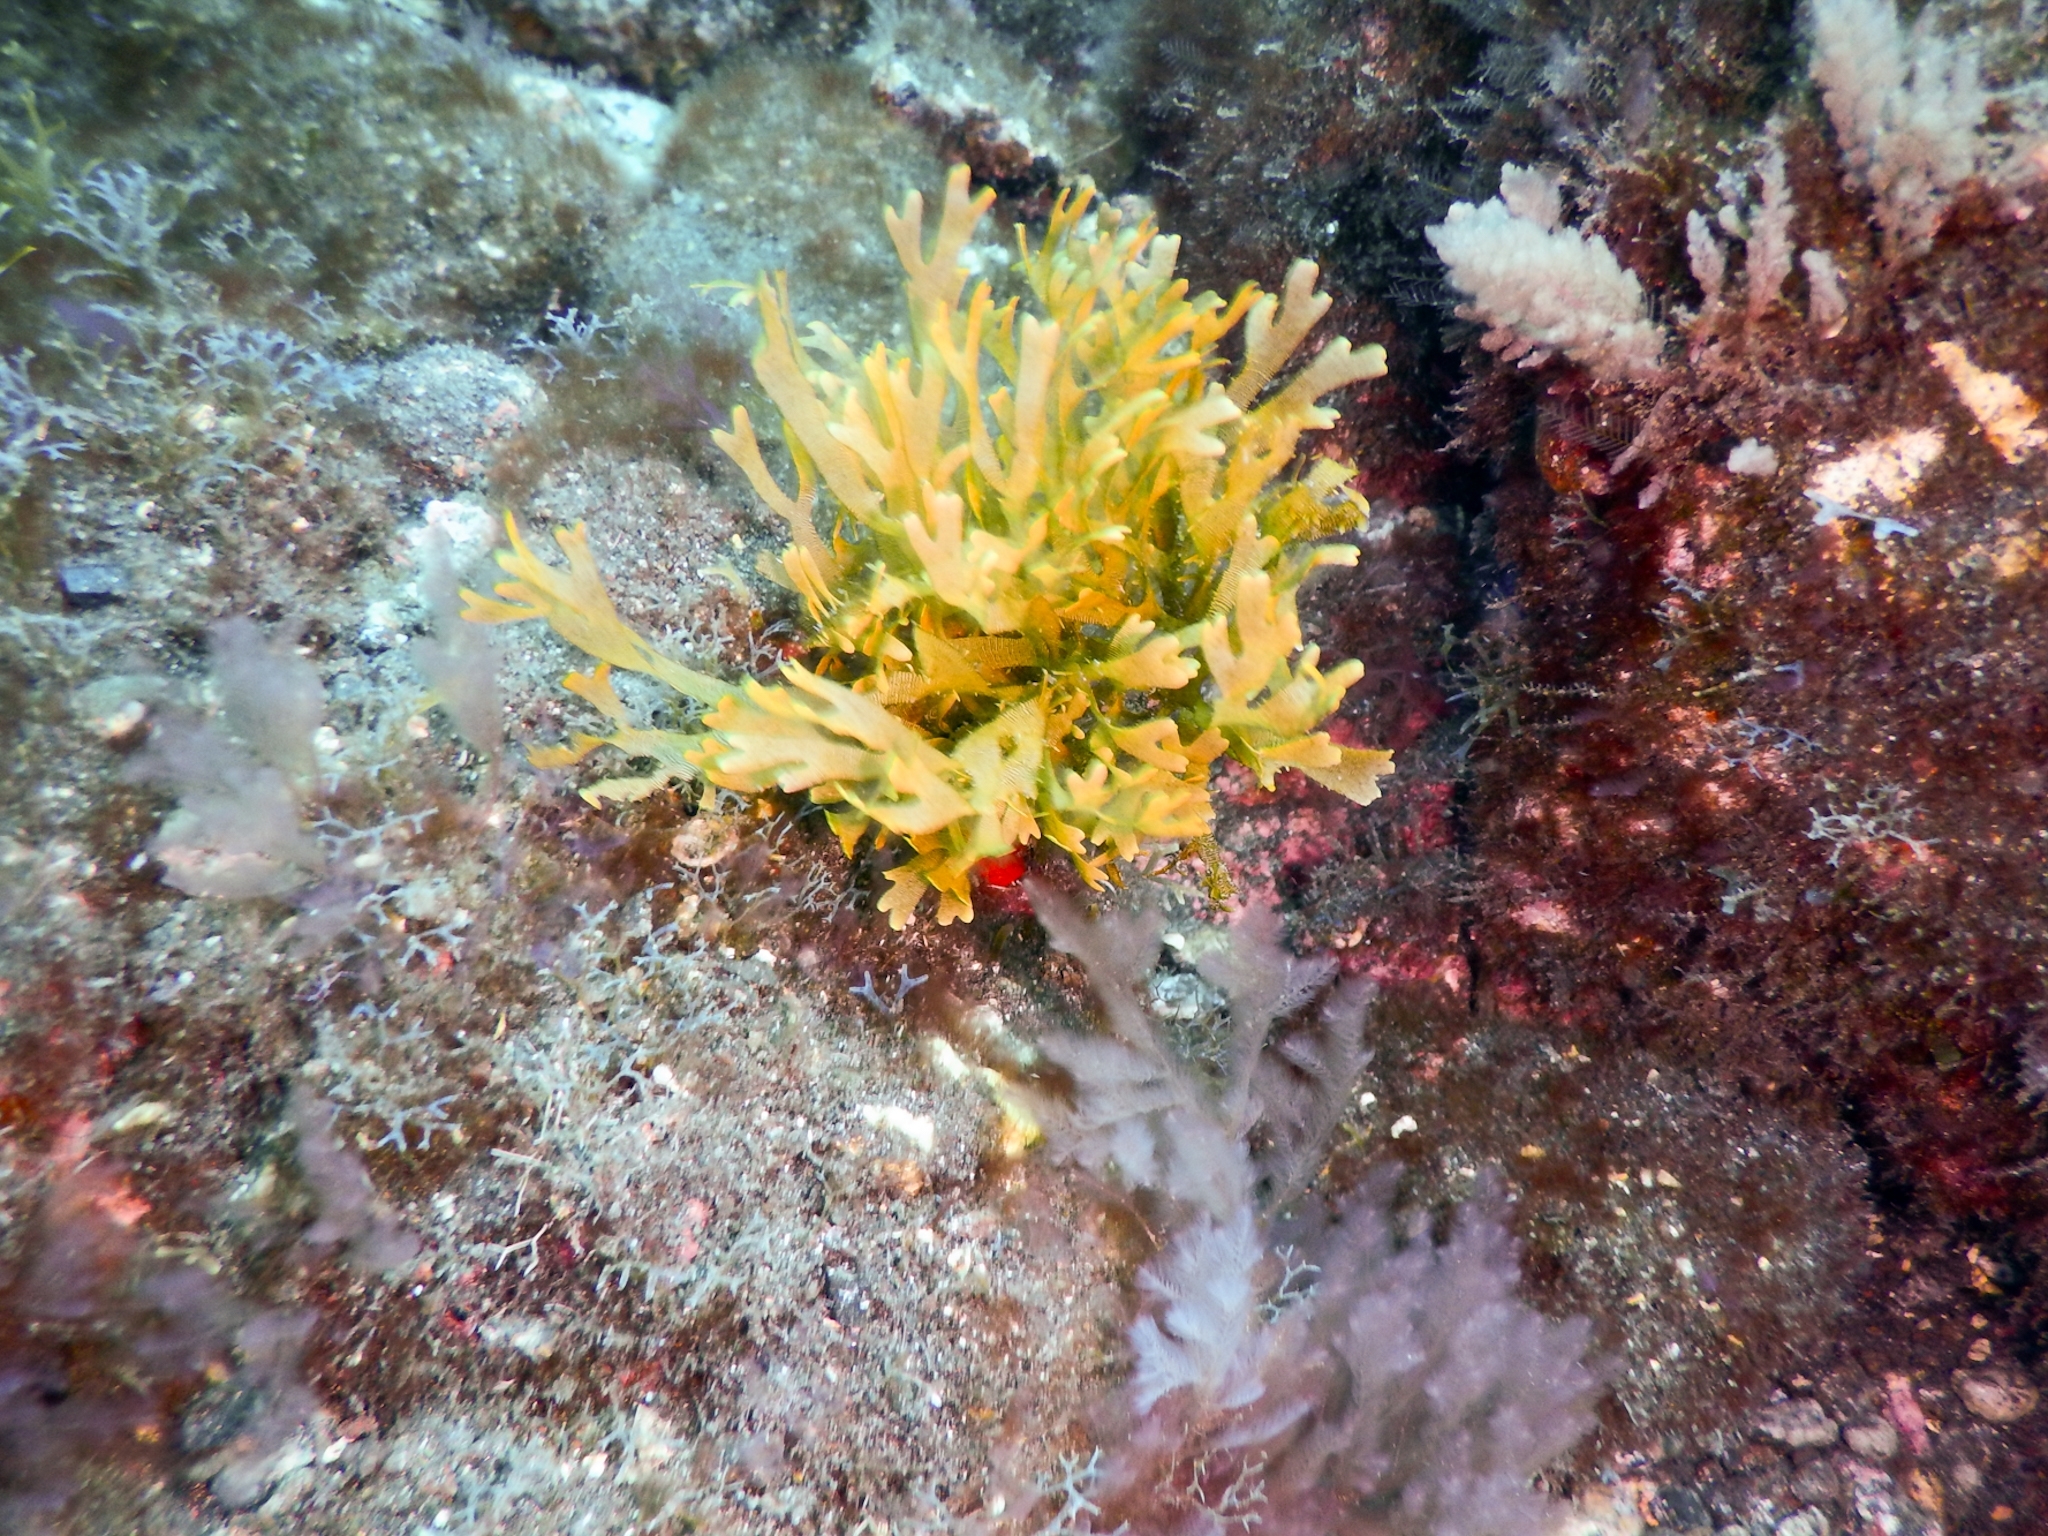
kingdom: Chromista
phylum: Ochrophyta
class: Phaeophyceae
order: Dictyotales
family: Dictyotaceae
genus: Dictyota
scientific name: Dictyota dichotoma
